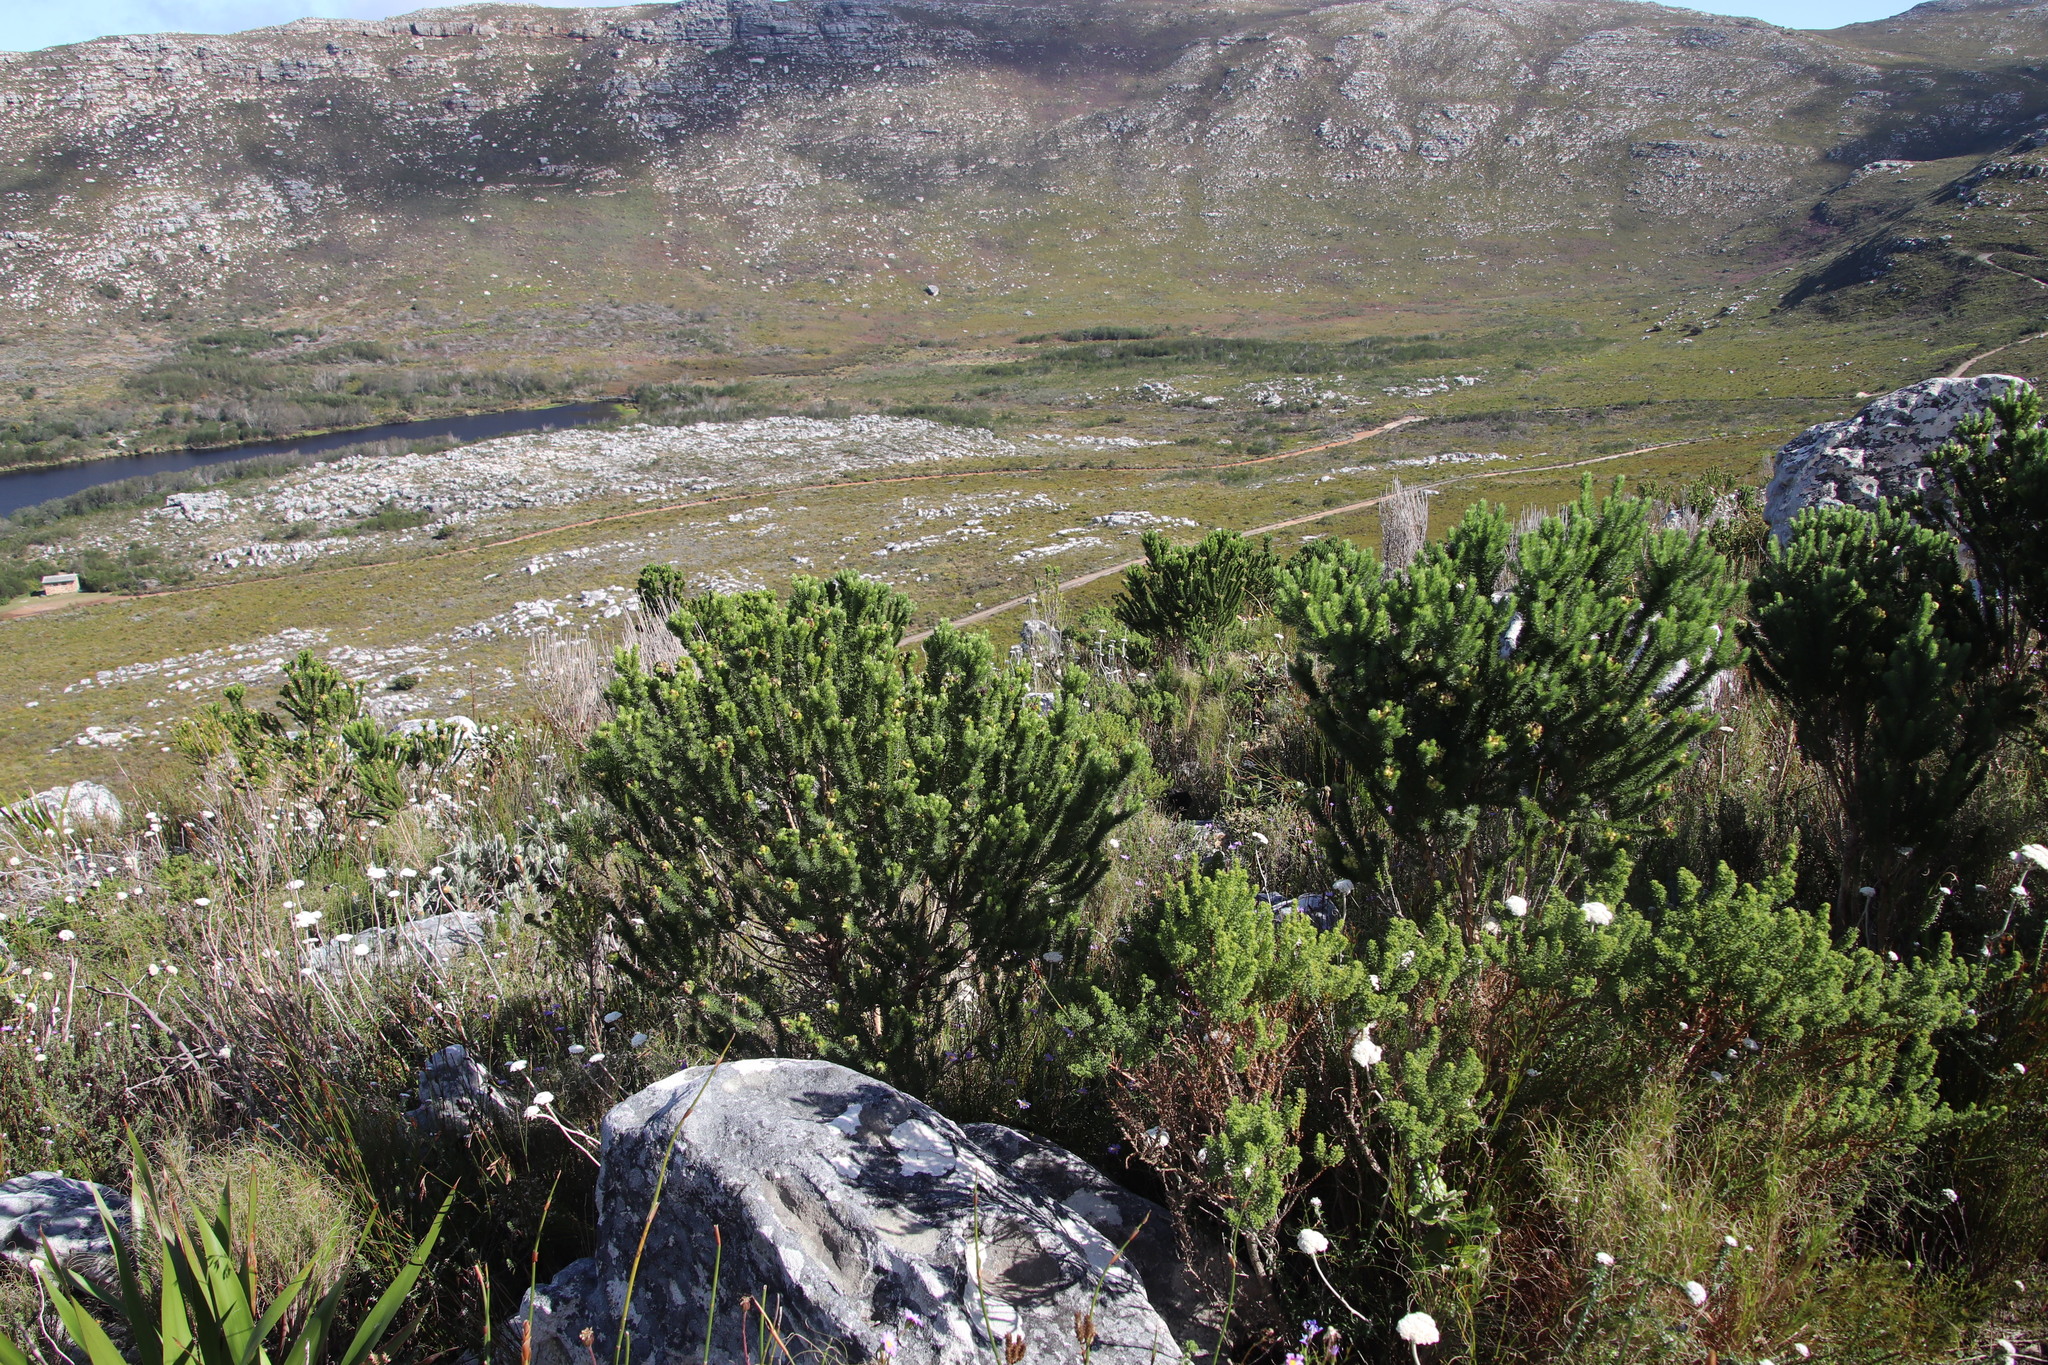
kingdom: Plantae
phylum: Tracheophyta
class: Magnoliopsida
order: Fabales
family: Fabaceae
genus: Aspalathus
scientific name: Aspalathus capitata
